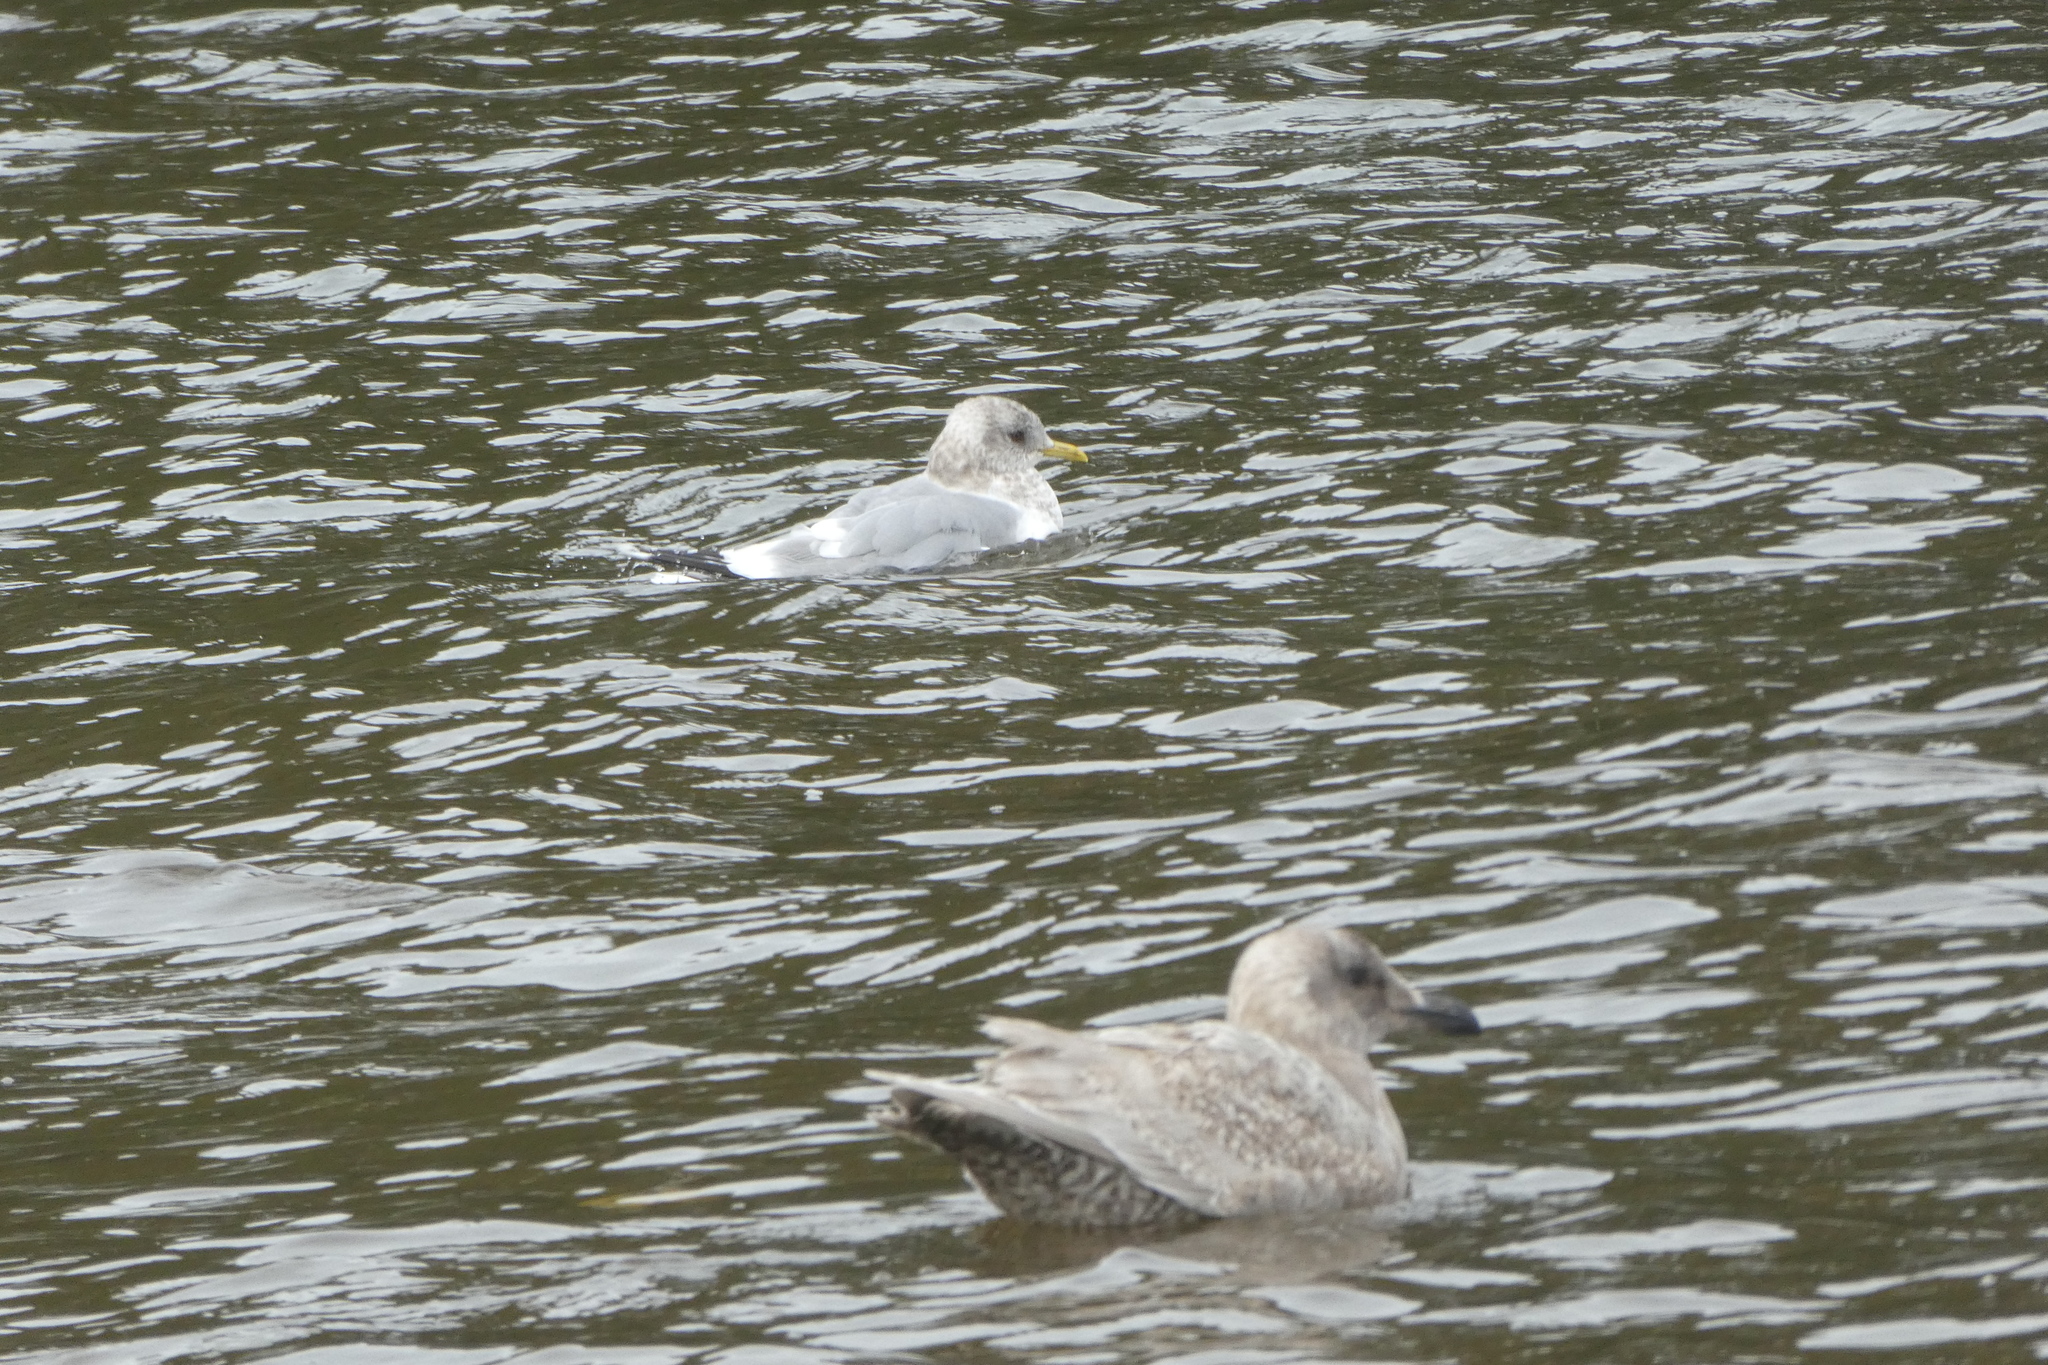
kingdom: Animalia
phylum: Chordata
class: Aves
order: Charadriiformes
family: Laridae
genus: Larus
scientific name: Larus brachyrhynchus
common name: Short-billed gull
